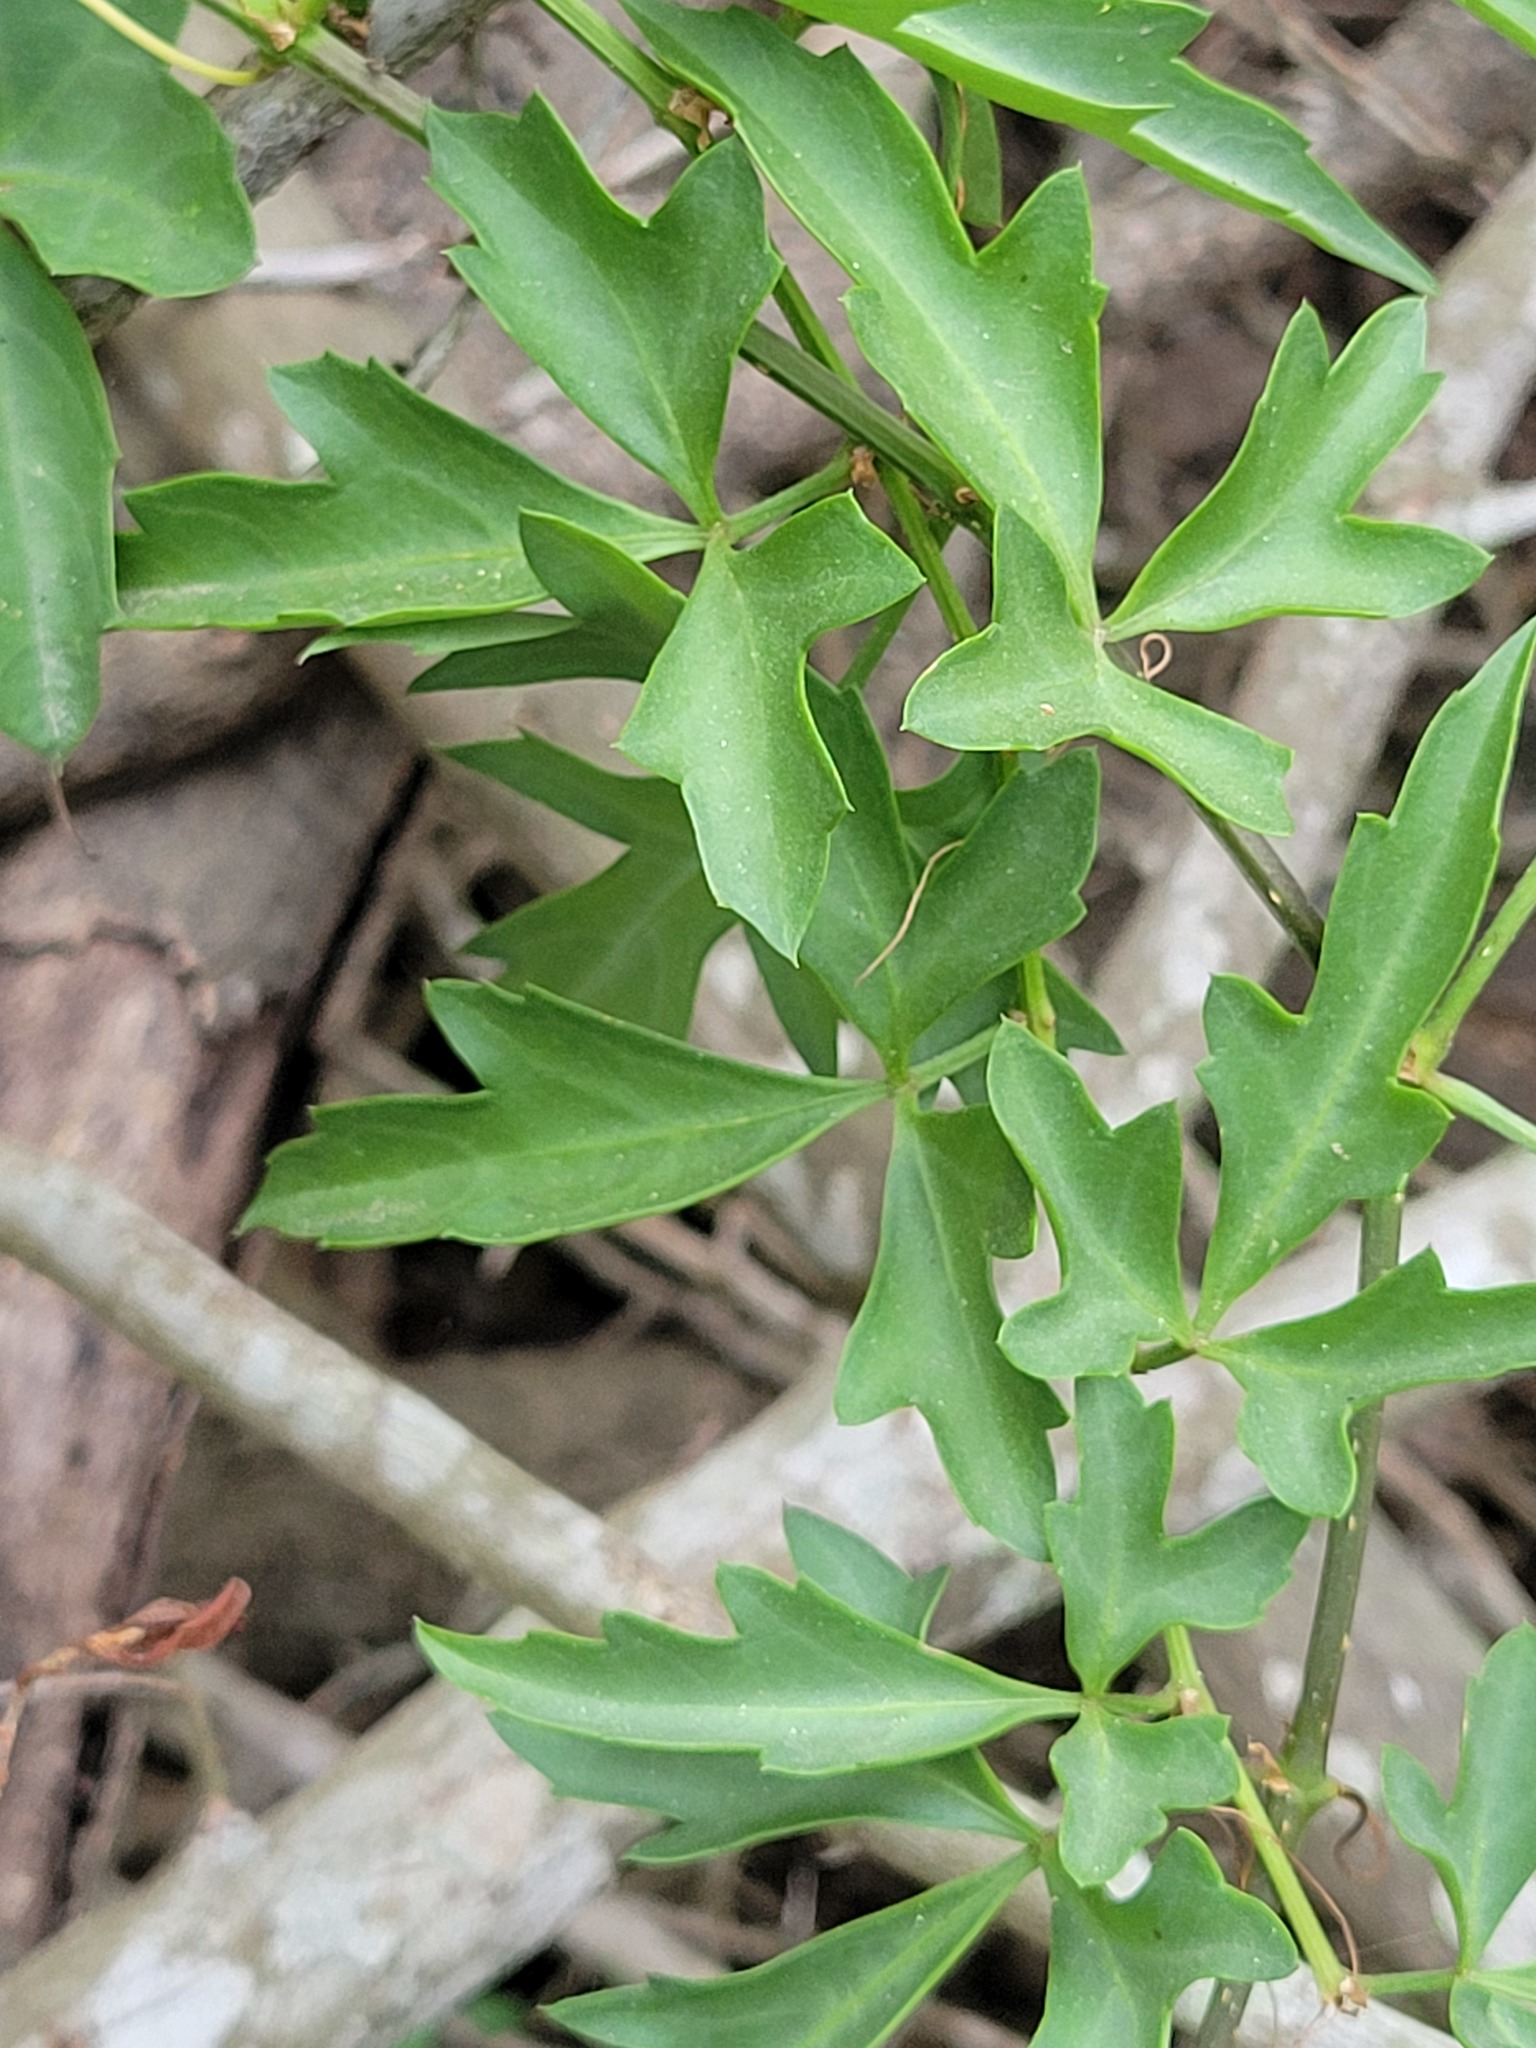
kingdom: Plantae
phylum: Tracheophyta
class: Magnoliopsida
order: Vitales
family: Vitaceae
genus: Cissus
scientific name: Cissus trifoliata
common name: Vine-sorrel
